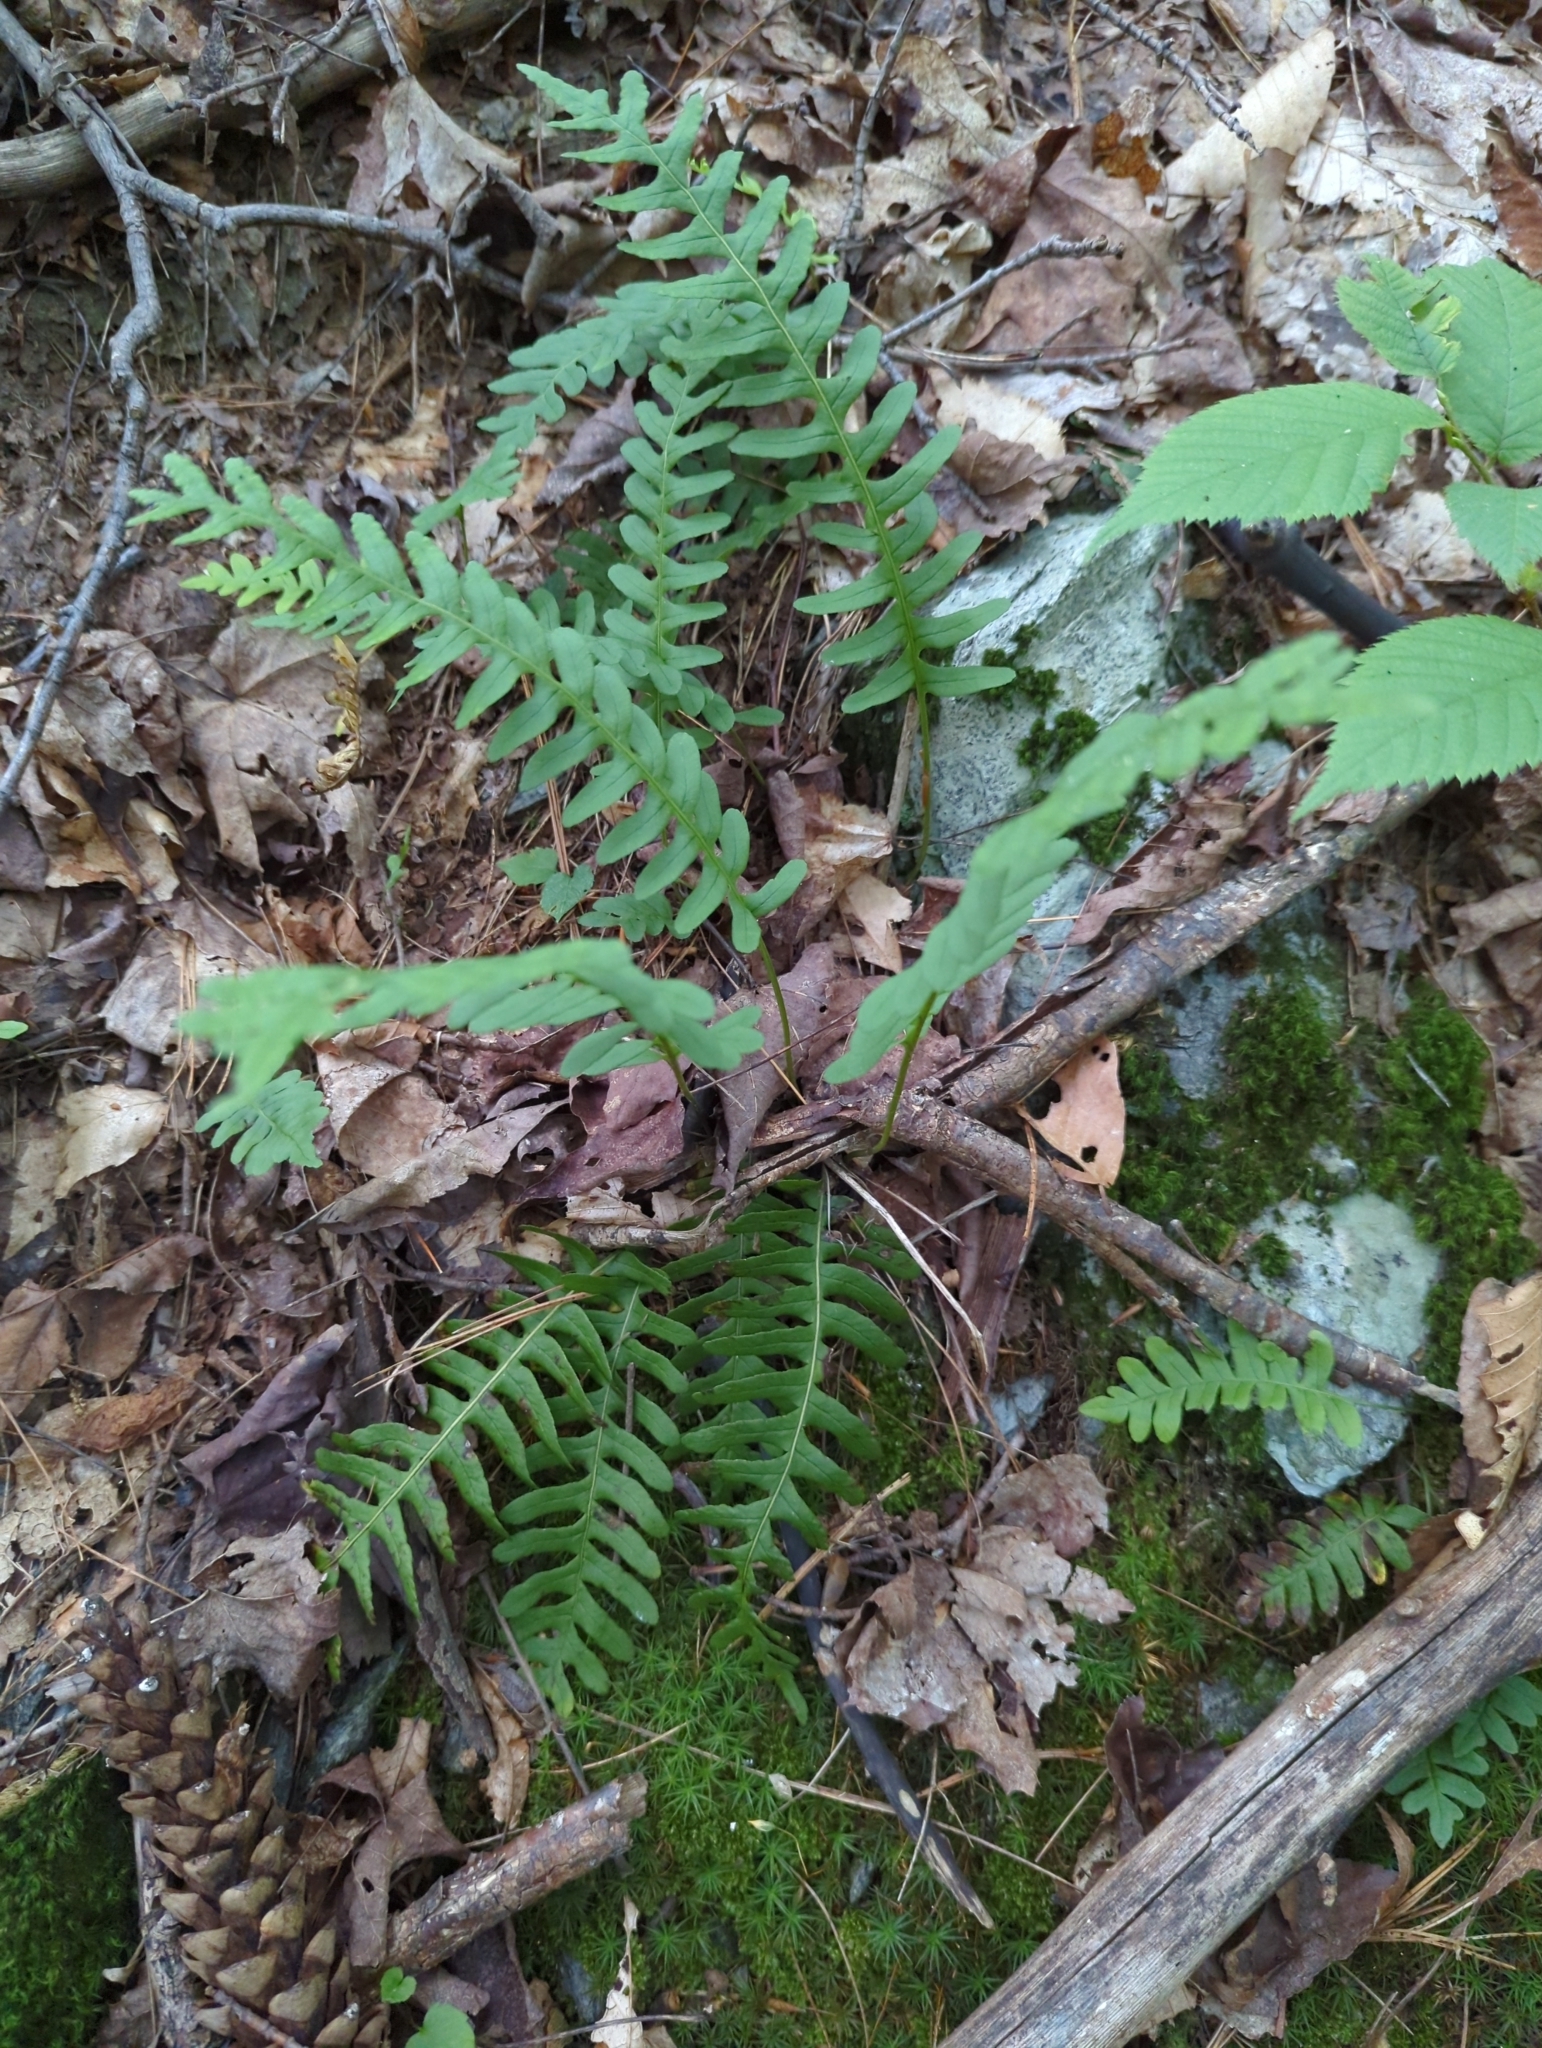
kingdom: Plantae
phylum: Tracheophyta
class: Polypodiopsida
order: Polypodiales
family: Polypodiaceae
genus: Polypodium
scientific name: Polypodium virginianum
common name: American wall fern
